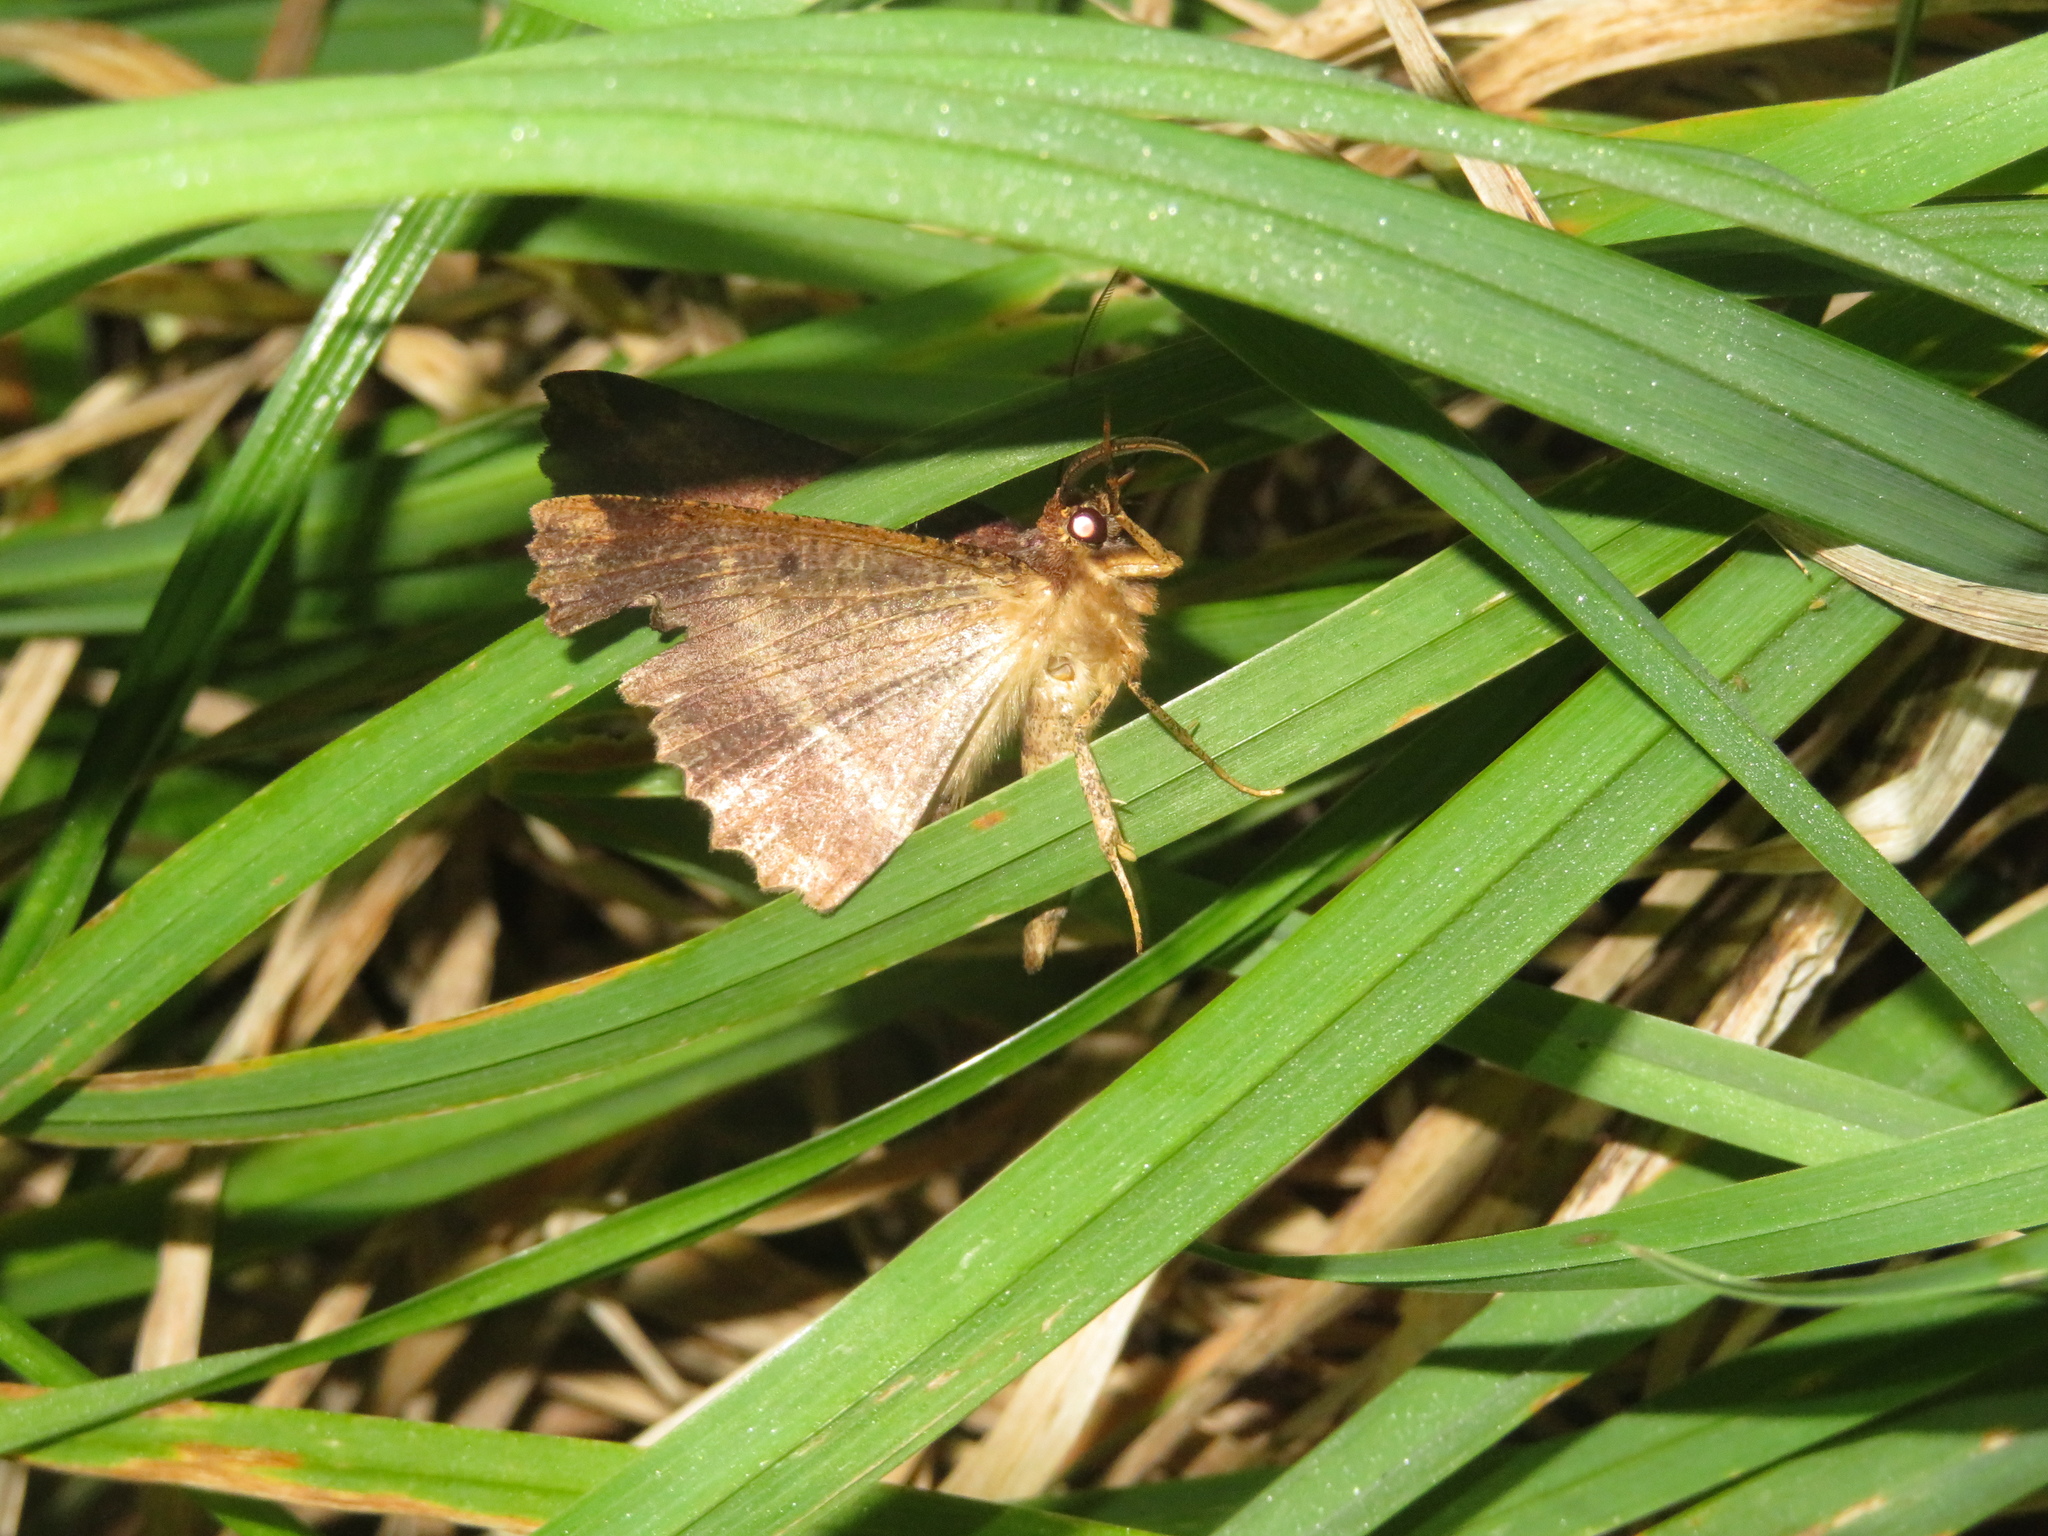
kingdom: Animalia
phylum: Arthropoda
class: Insecta
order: Lepidoptera
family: Geometridae
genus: Gellonia
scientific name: Gellonia dejectaria
